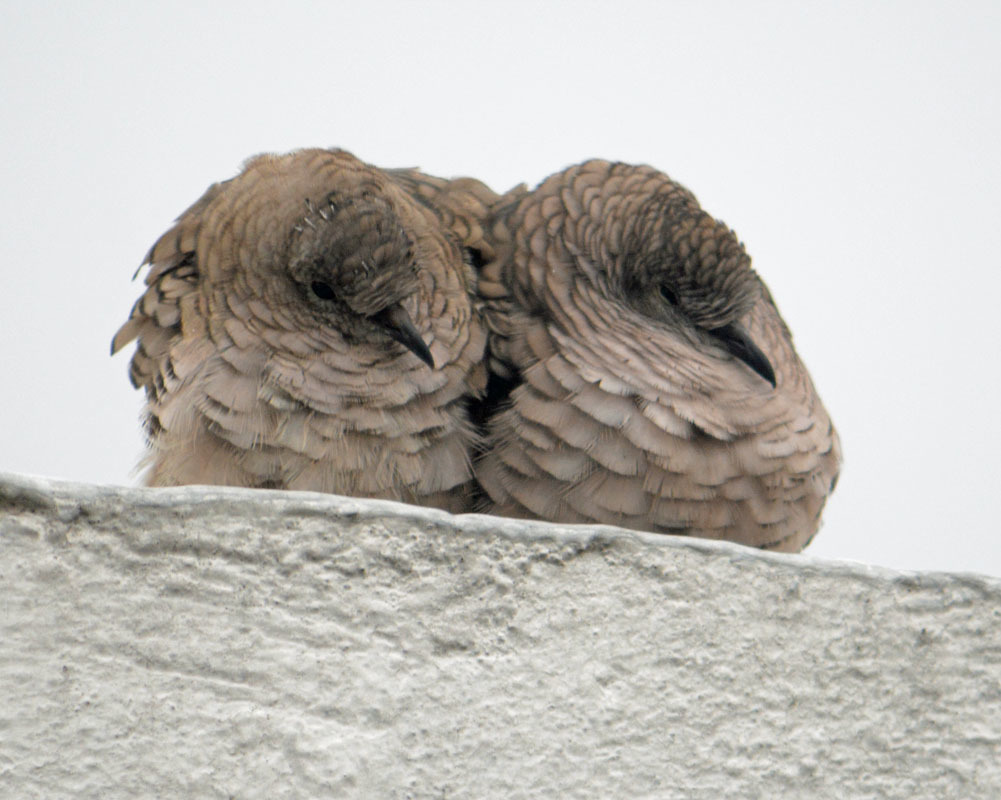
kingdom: Animalia
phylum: Chordata
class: Aves
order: Columbiformes
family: Columbidae
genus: Columbina
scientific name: Columbina inca
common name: Inca dove
